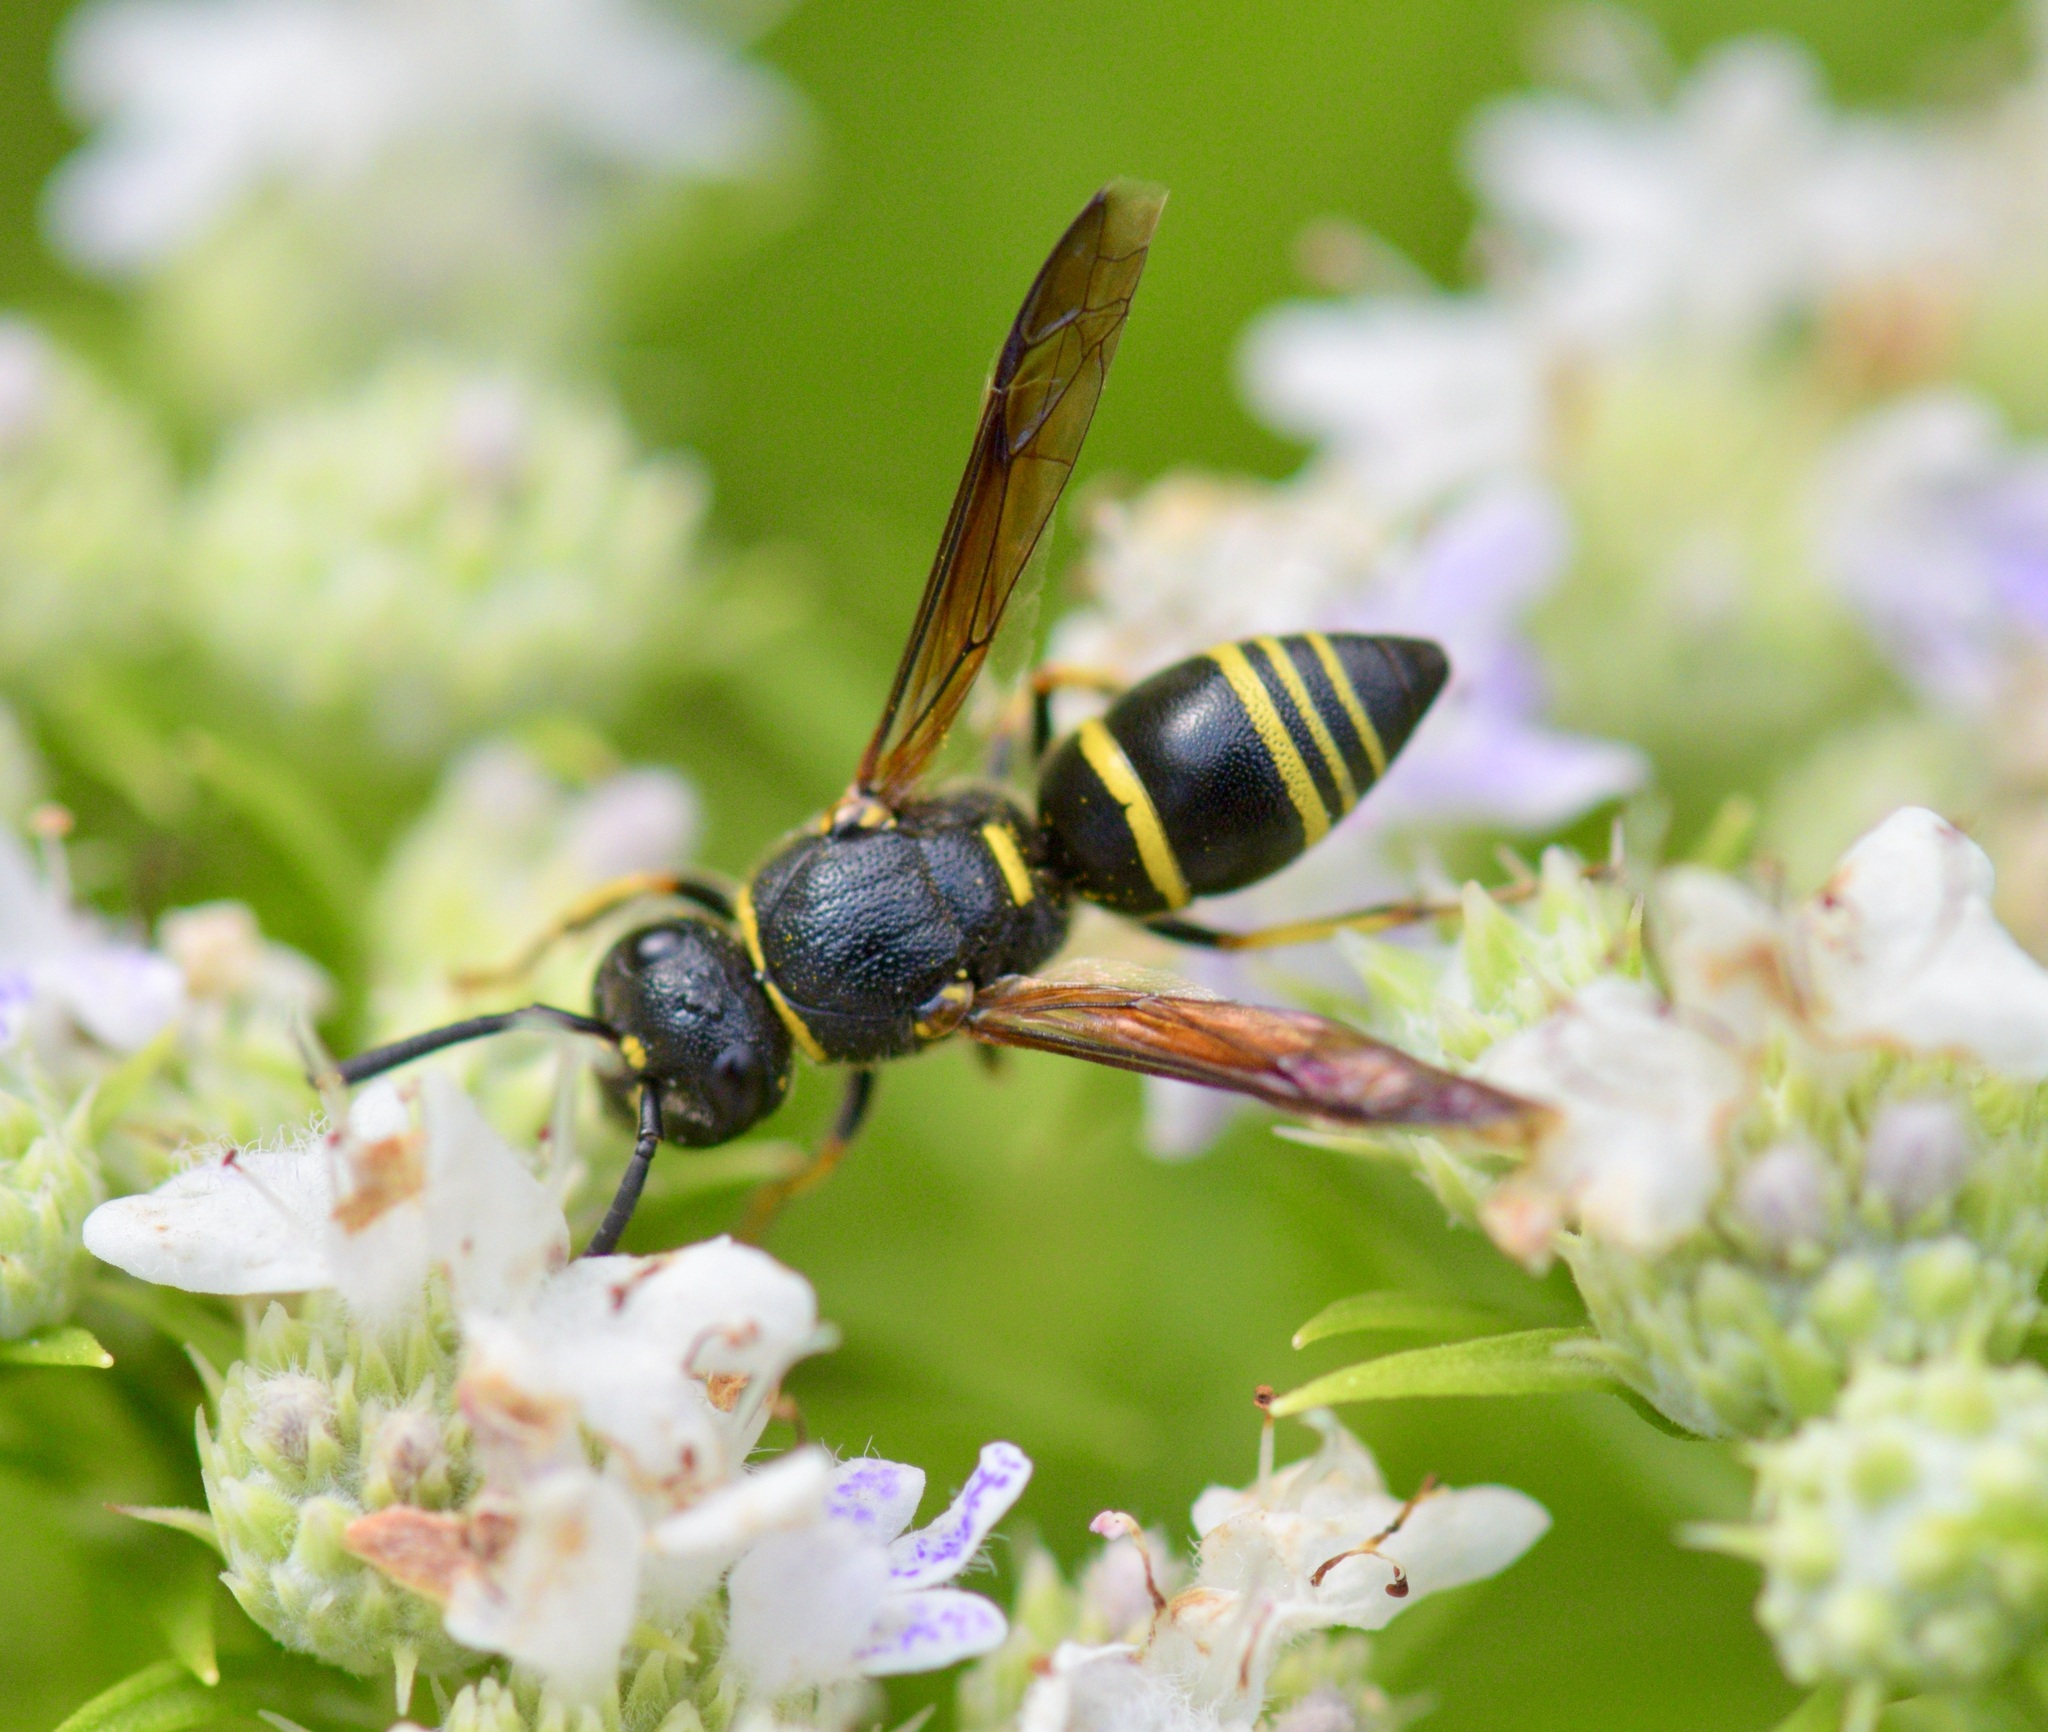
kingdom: Animalia
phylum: Arthropoda
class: Insecta
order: Hymenoptera
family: Eumenidae
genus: Euodynerus
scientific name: Euodynerus foraminatus
